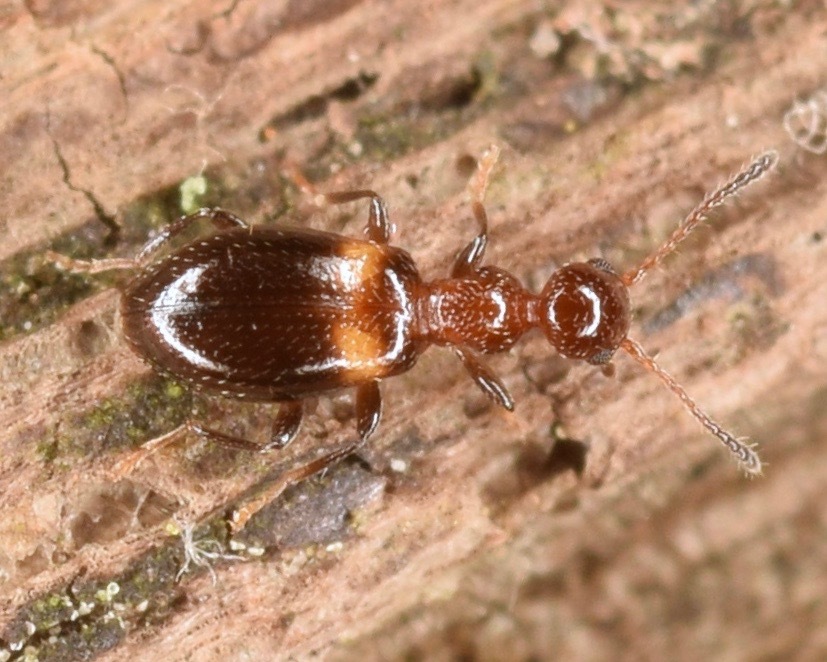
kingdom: Animalia
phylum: Arthropoda
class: Insecta
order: Coleoptera
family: Anthicidae
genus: Acanthinus
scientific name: Acanthinus exilis
